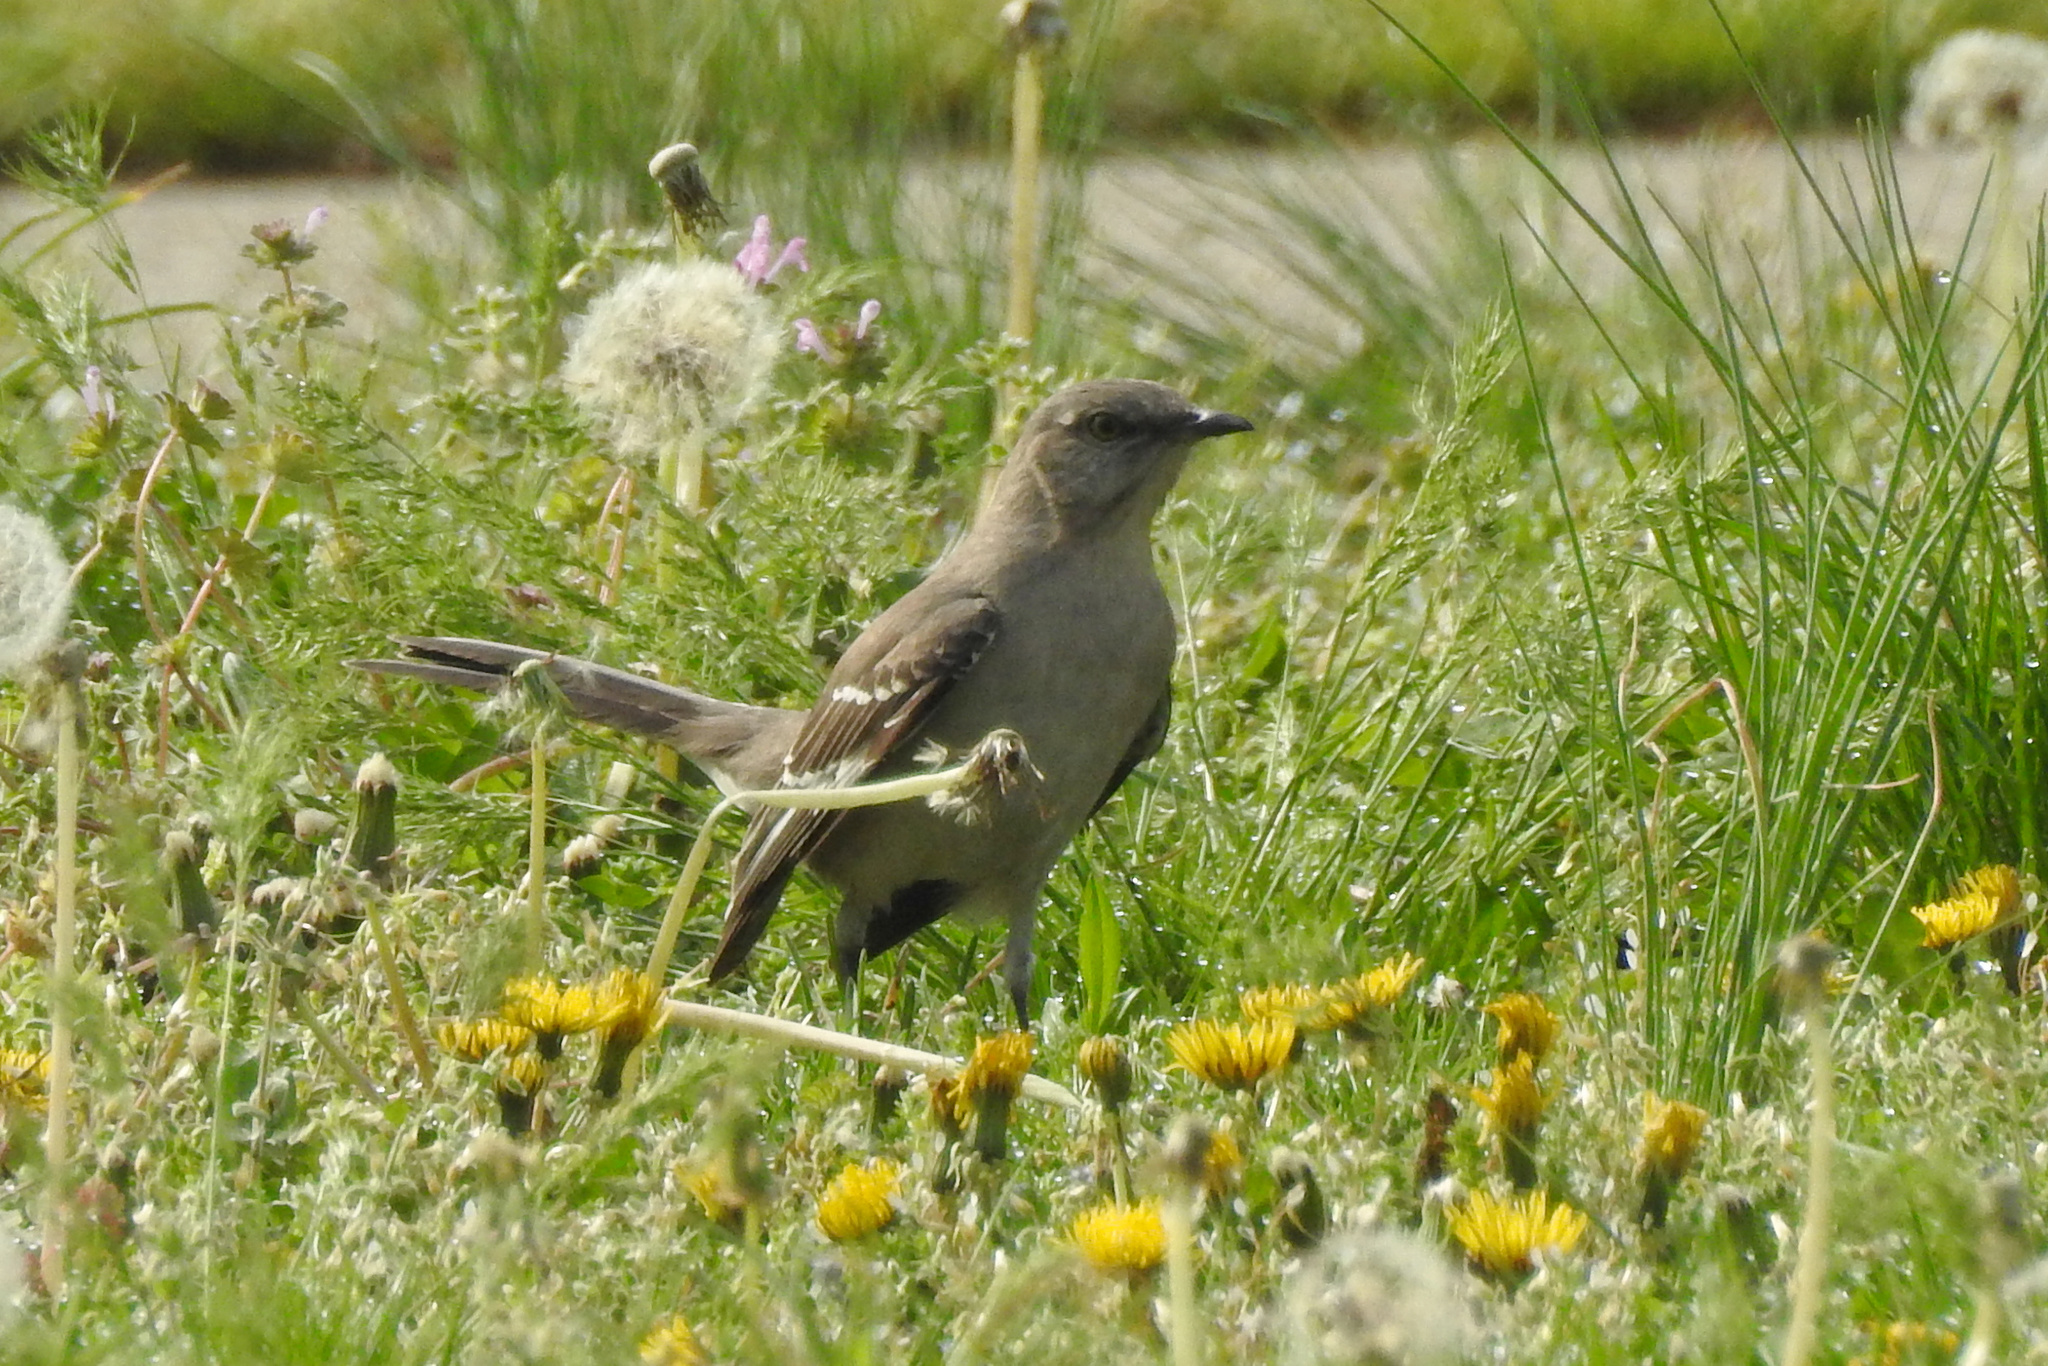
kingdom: Animalia
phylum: Chordata
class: Aves
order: Passeriformes
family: Mimidae
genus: Mimus
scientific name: Mimus polyglottos
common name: Northern mockingbird
